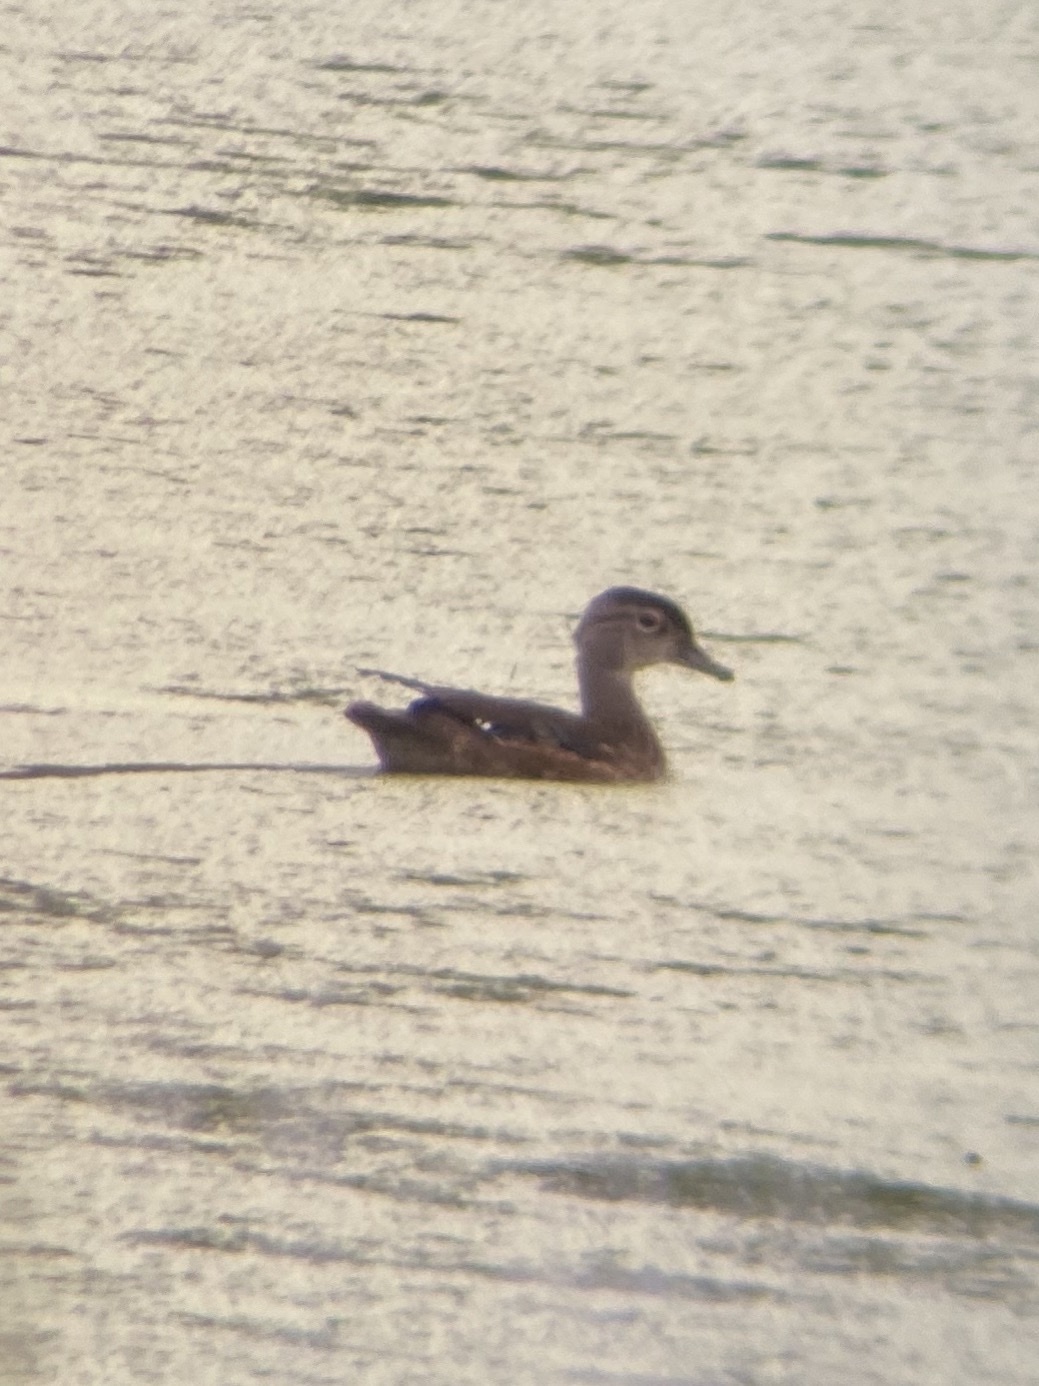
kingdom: Animalia
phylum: Chordata
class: Aves
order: Anseriformes
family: Anatidae
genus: Aix
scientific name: Aix sponsa
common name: Wood duck
